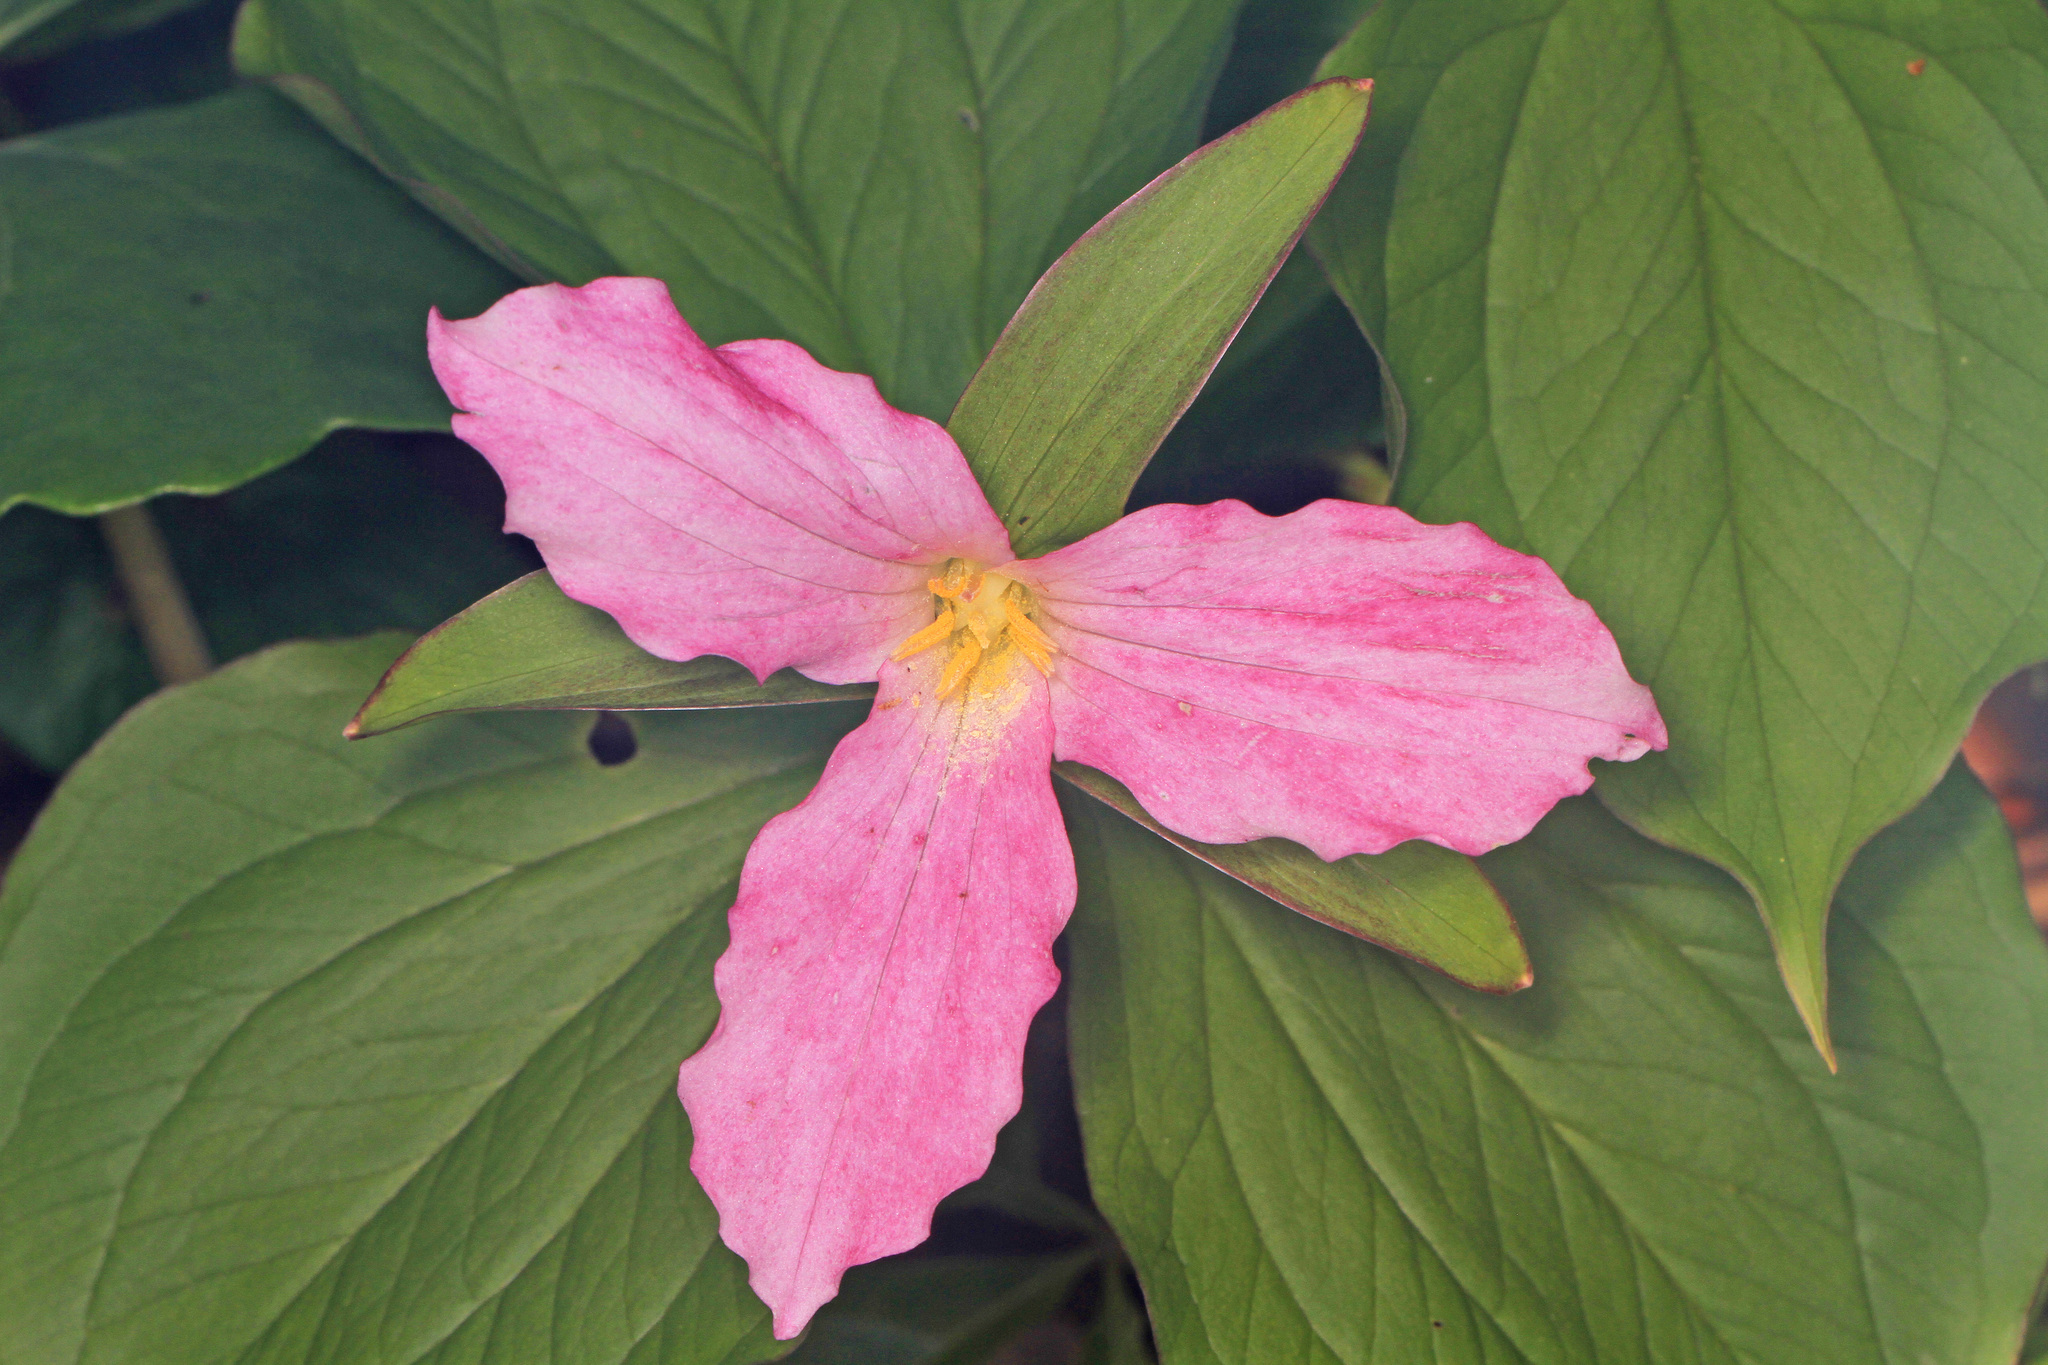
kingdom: Plantae
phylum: Tracheophyta
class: Liliopsida
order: Liliales
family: Melanthiaceae
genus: Trillium
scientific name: Trillium grandiflorum
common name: Great white trillium
